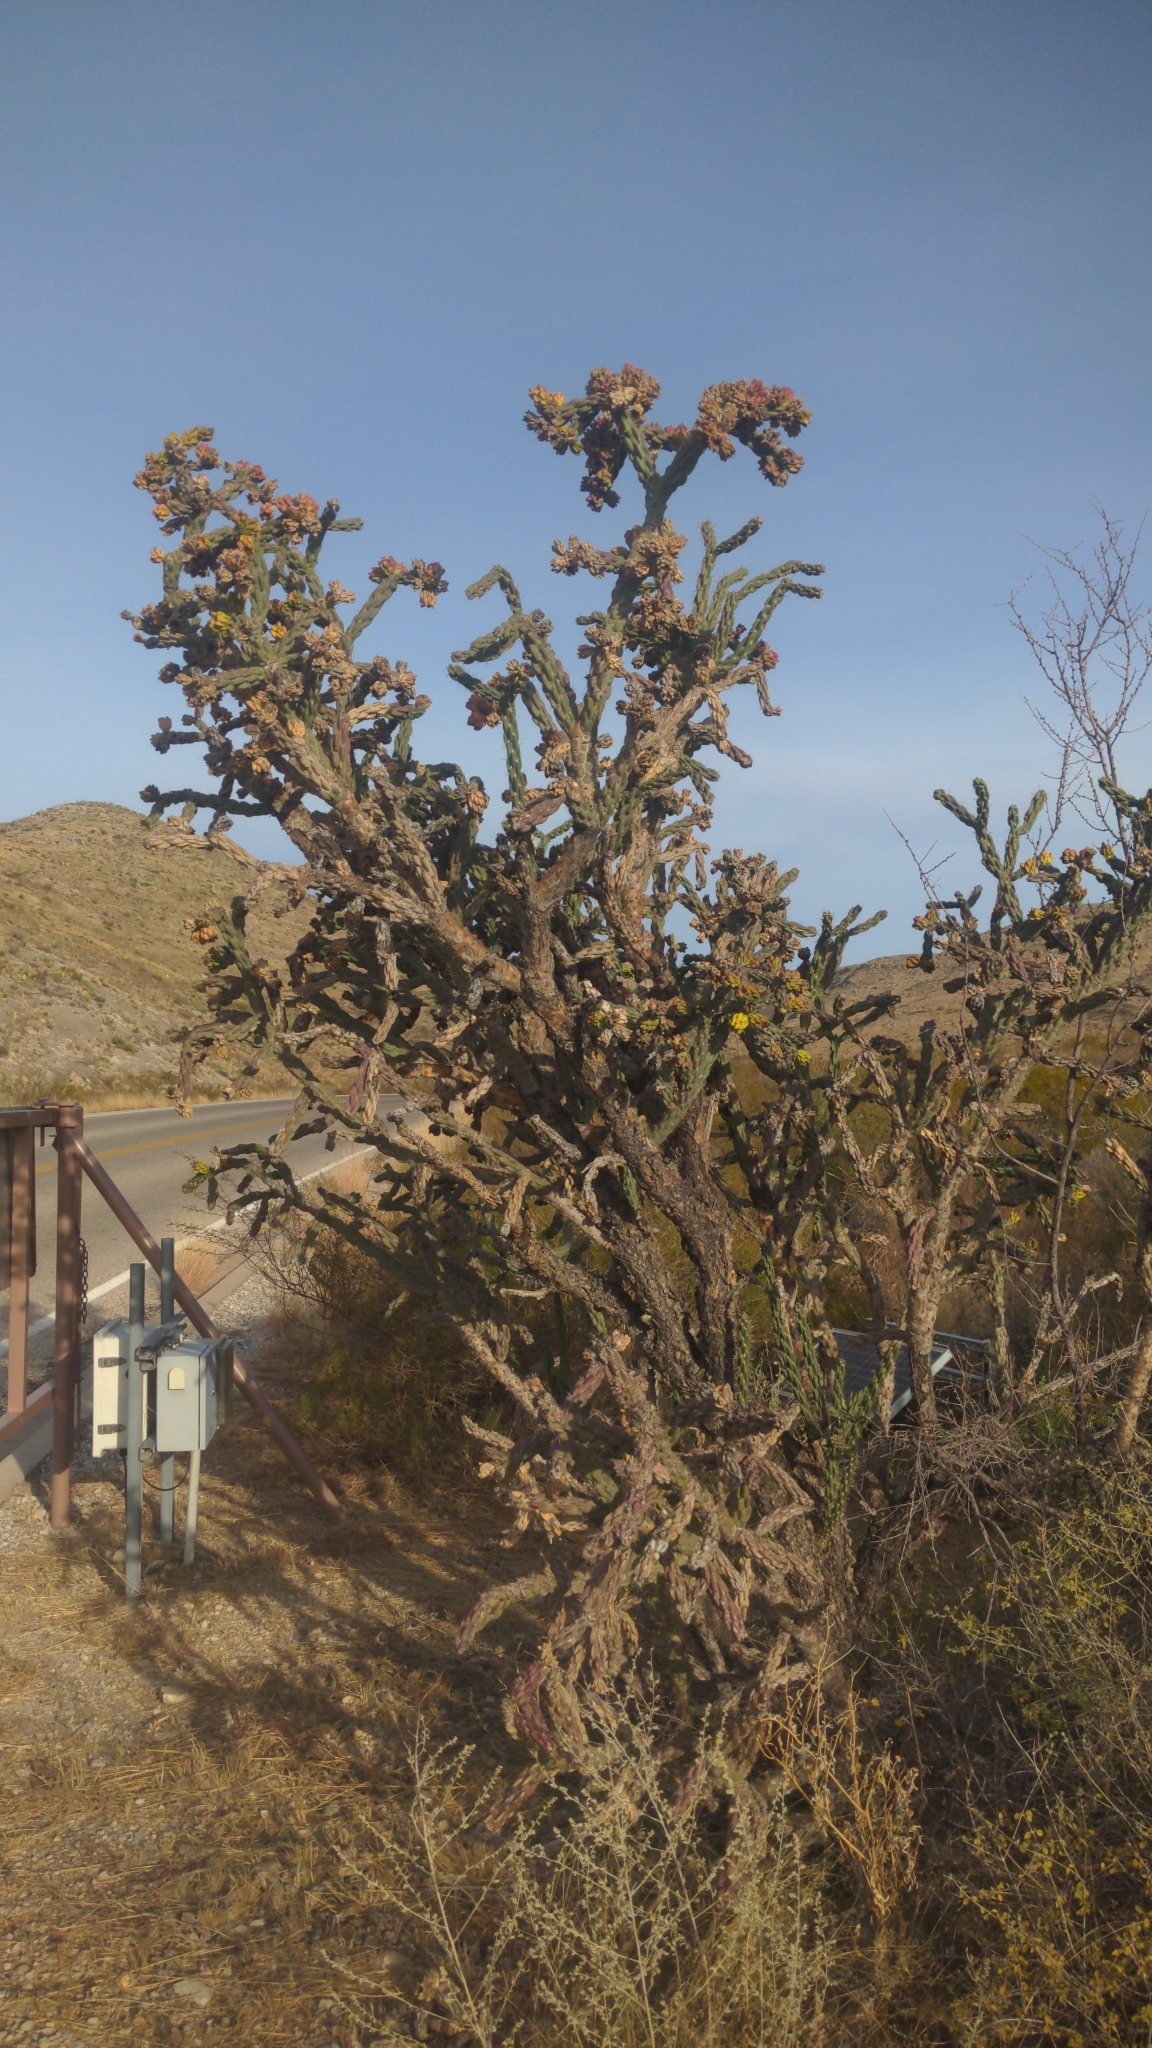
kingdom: Plantae
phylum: Tracheophyta
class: Magnoliopsida
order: Caryophyllales
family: Cactaceae
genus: Cylindropuntia
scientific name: Cylindropuntia imbricata
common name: Candelabrum cactus
